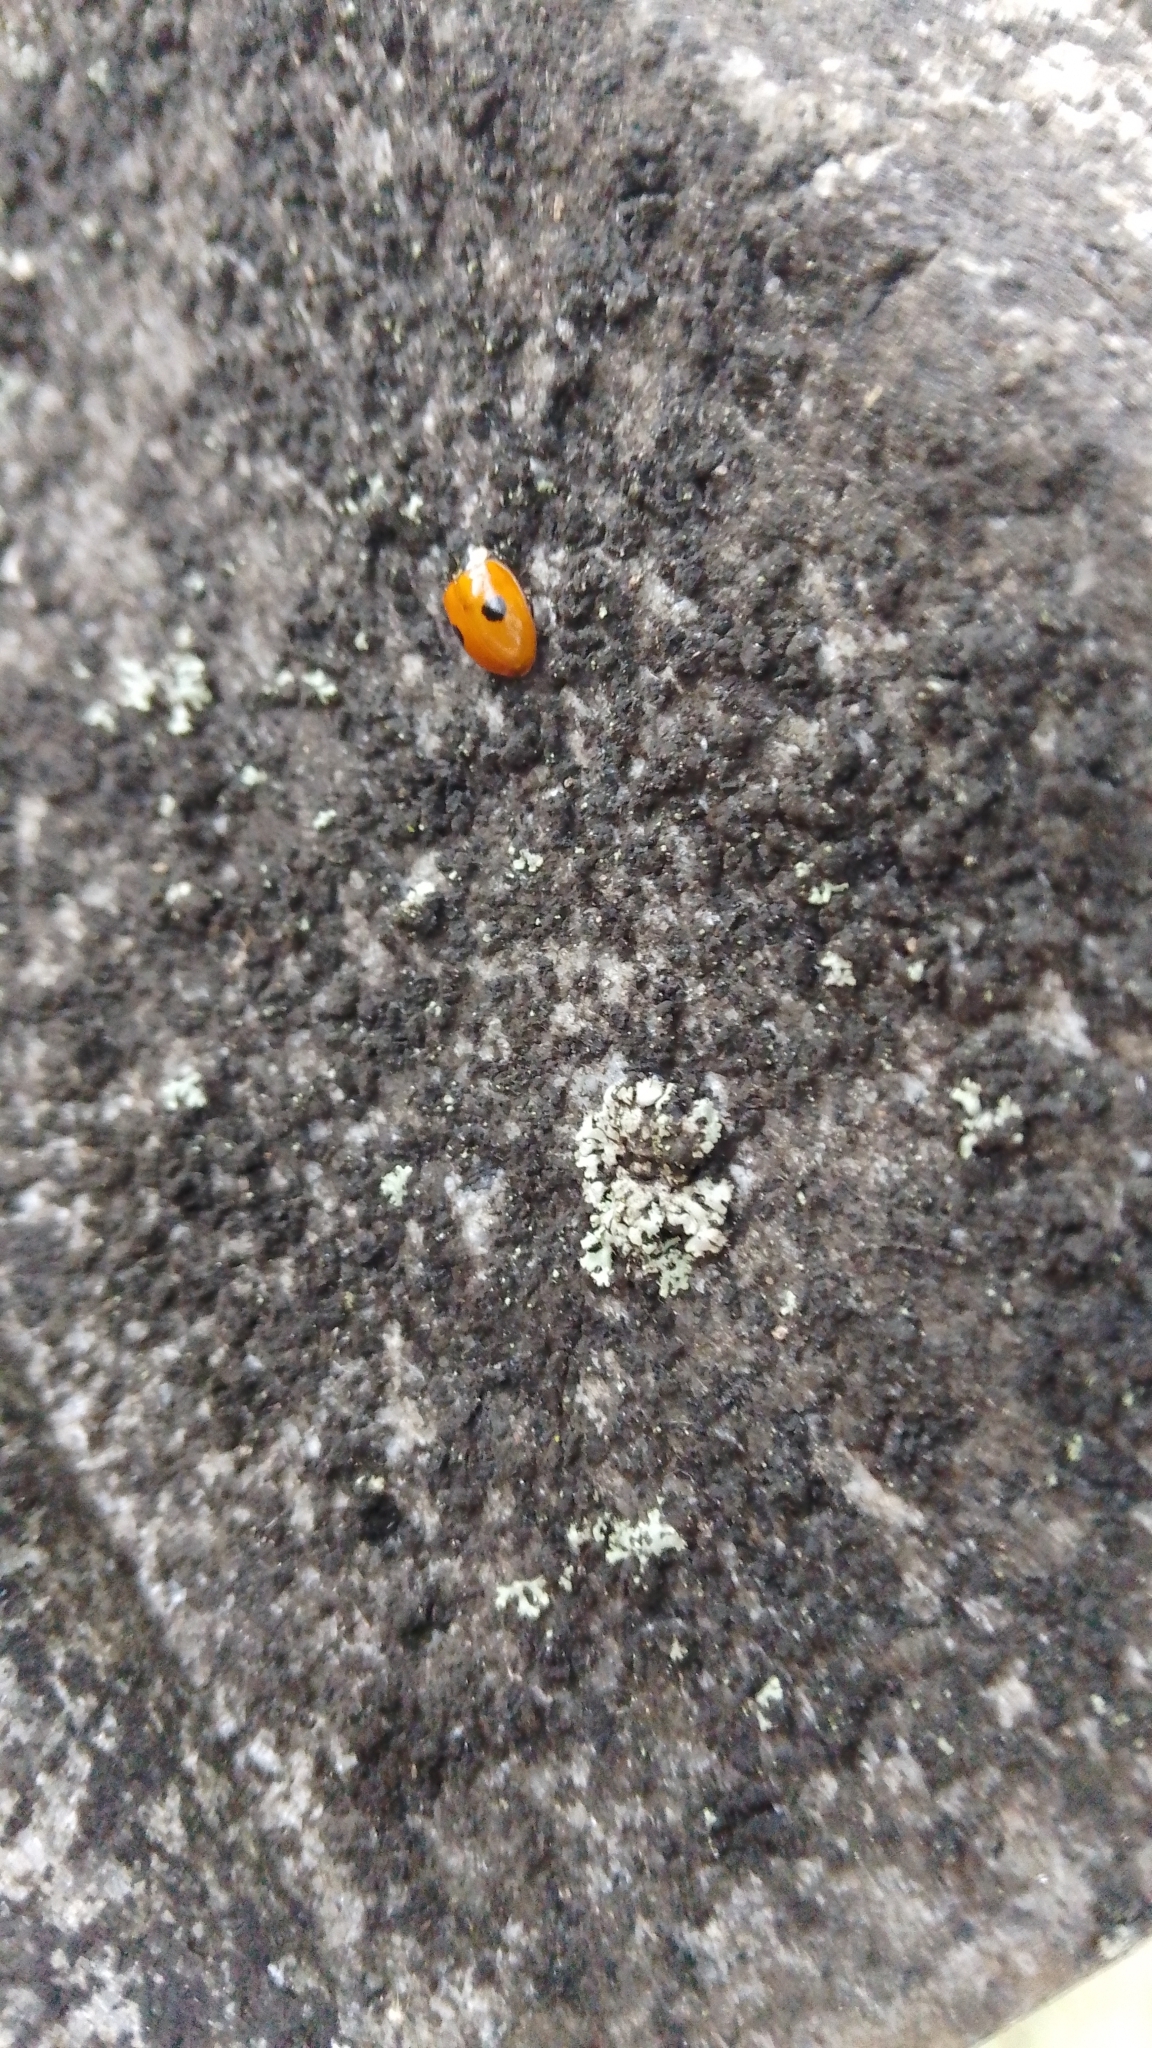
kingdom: Animalia
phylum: Arthropoda
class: Insecta
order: Coleoptera
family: Coccinellidae
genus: Adalia
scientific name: Adalia bipunctata
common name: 2-spot ladybird
